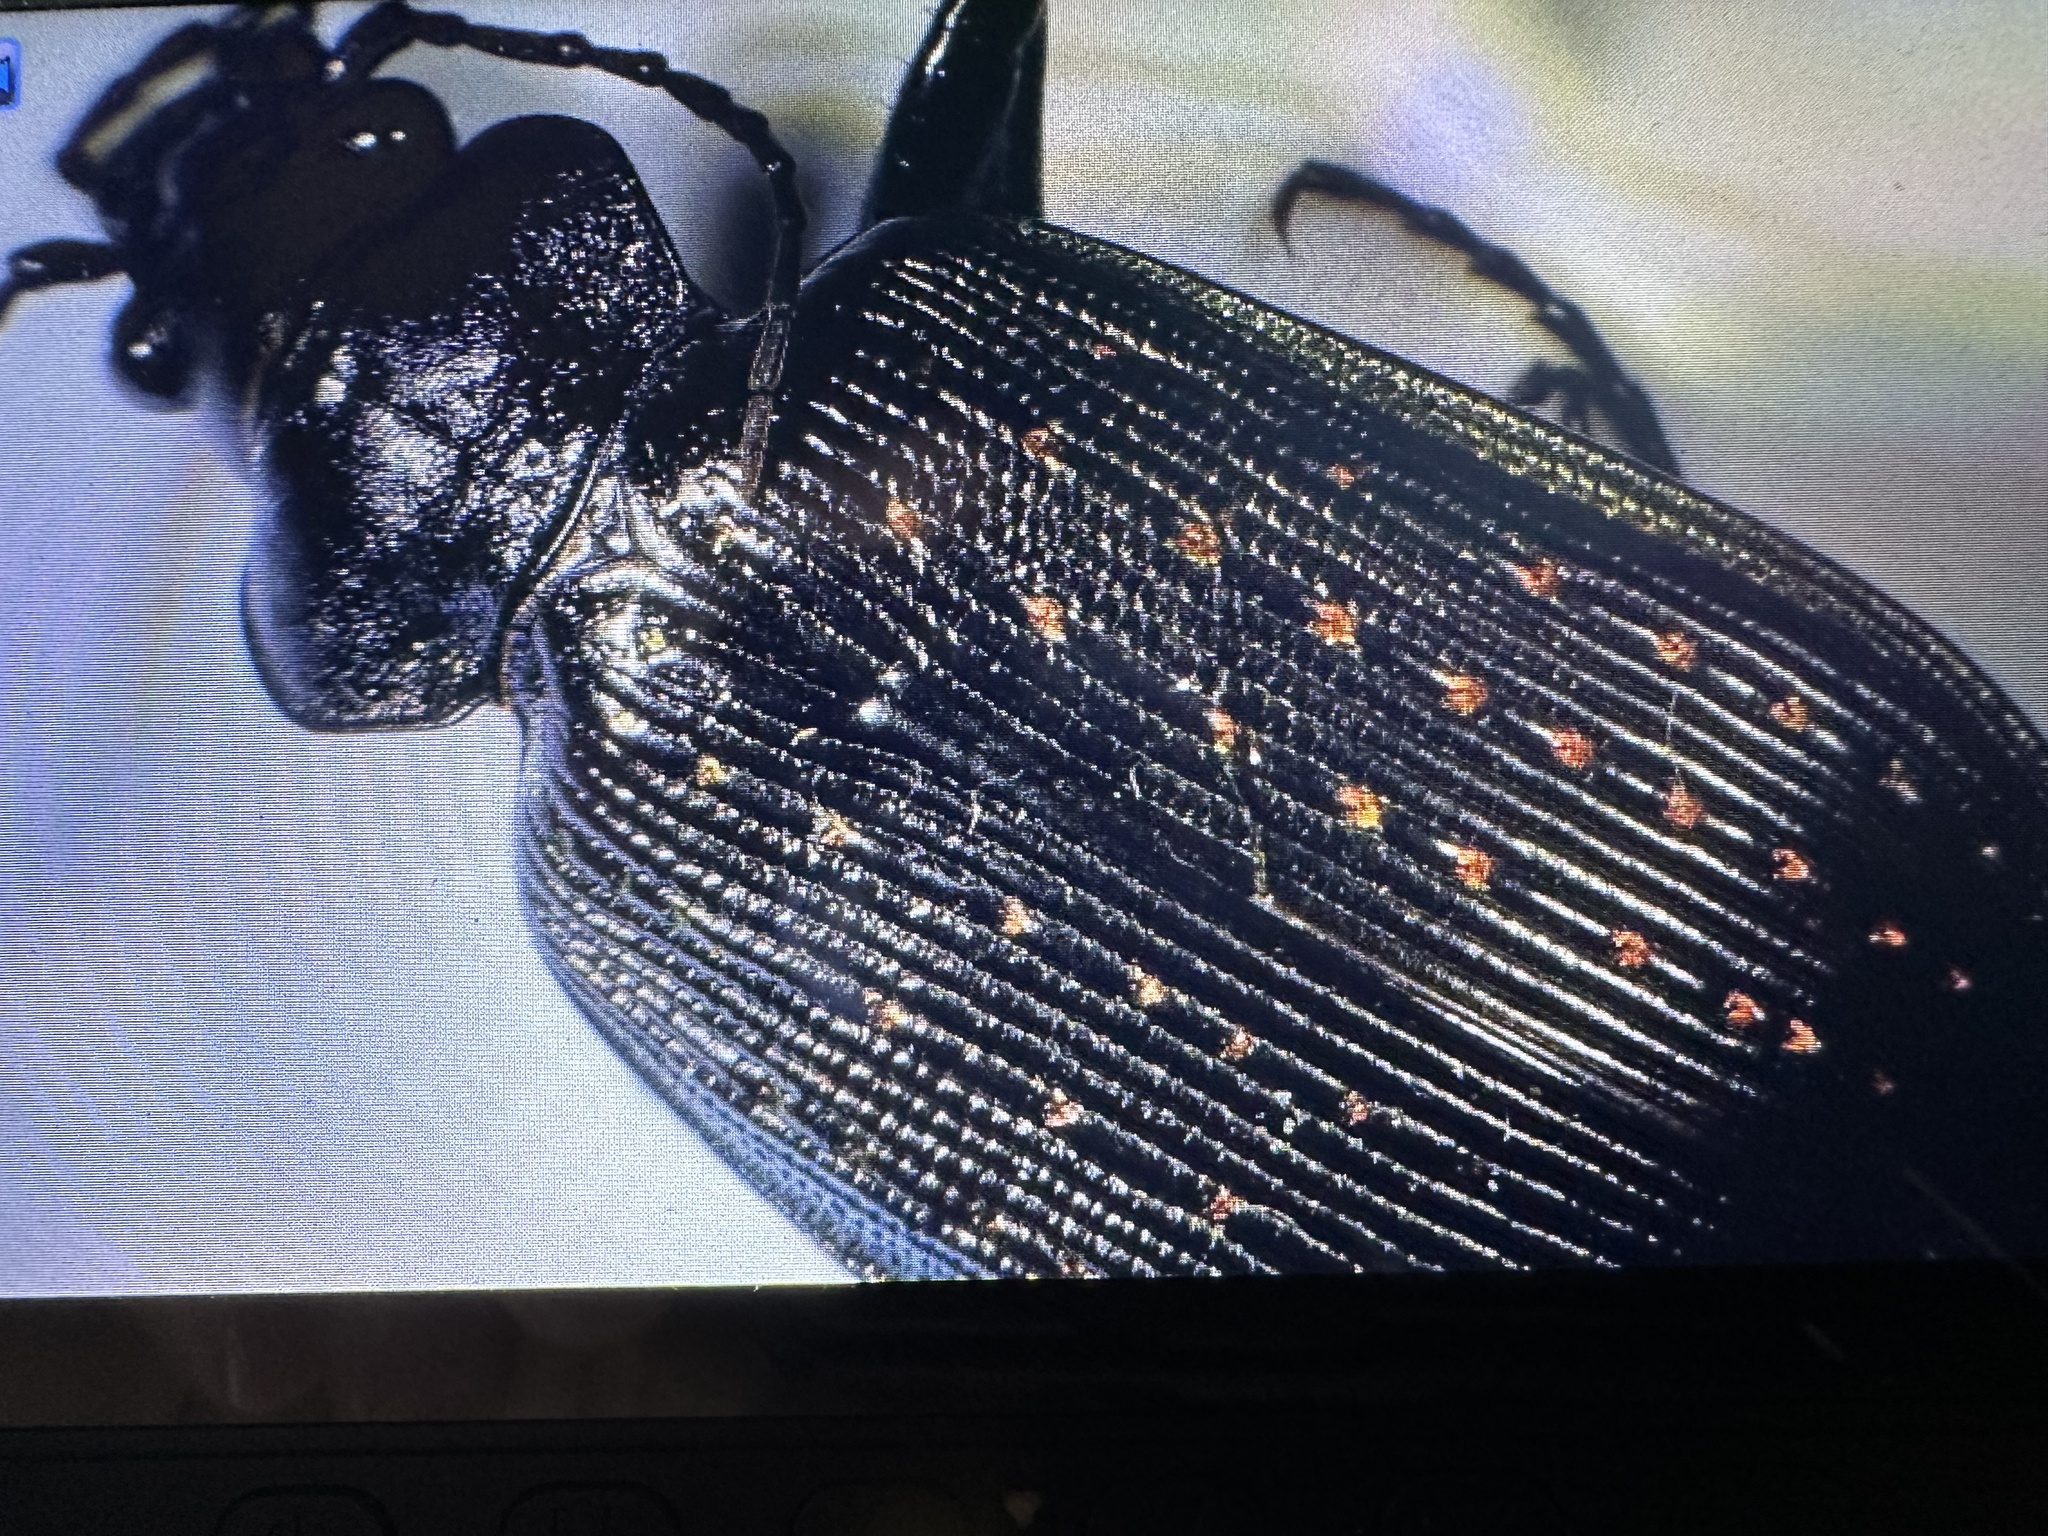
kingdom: Animalia
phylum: Arthropoda
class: Insecta
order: Coleoptera
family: Carabidae
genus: Calosoma
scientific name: Calosoma sayi
